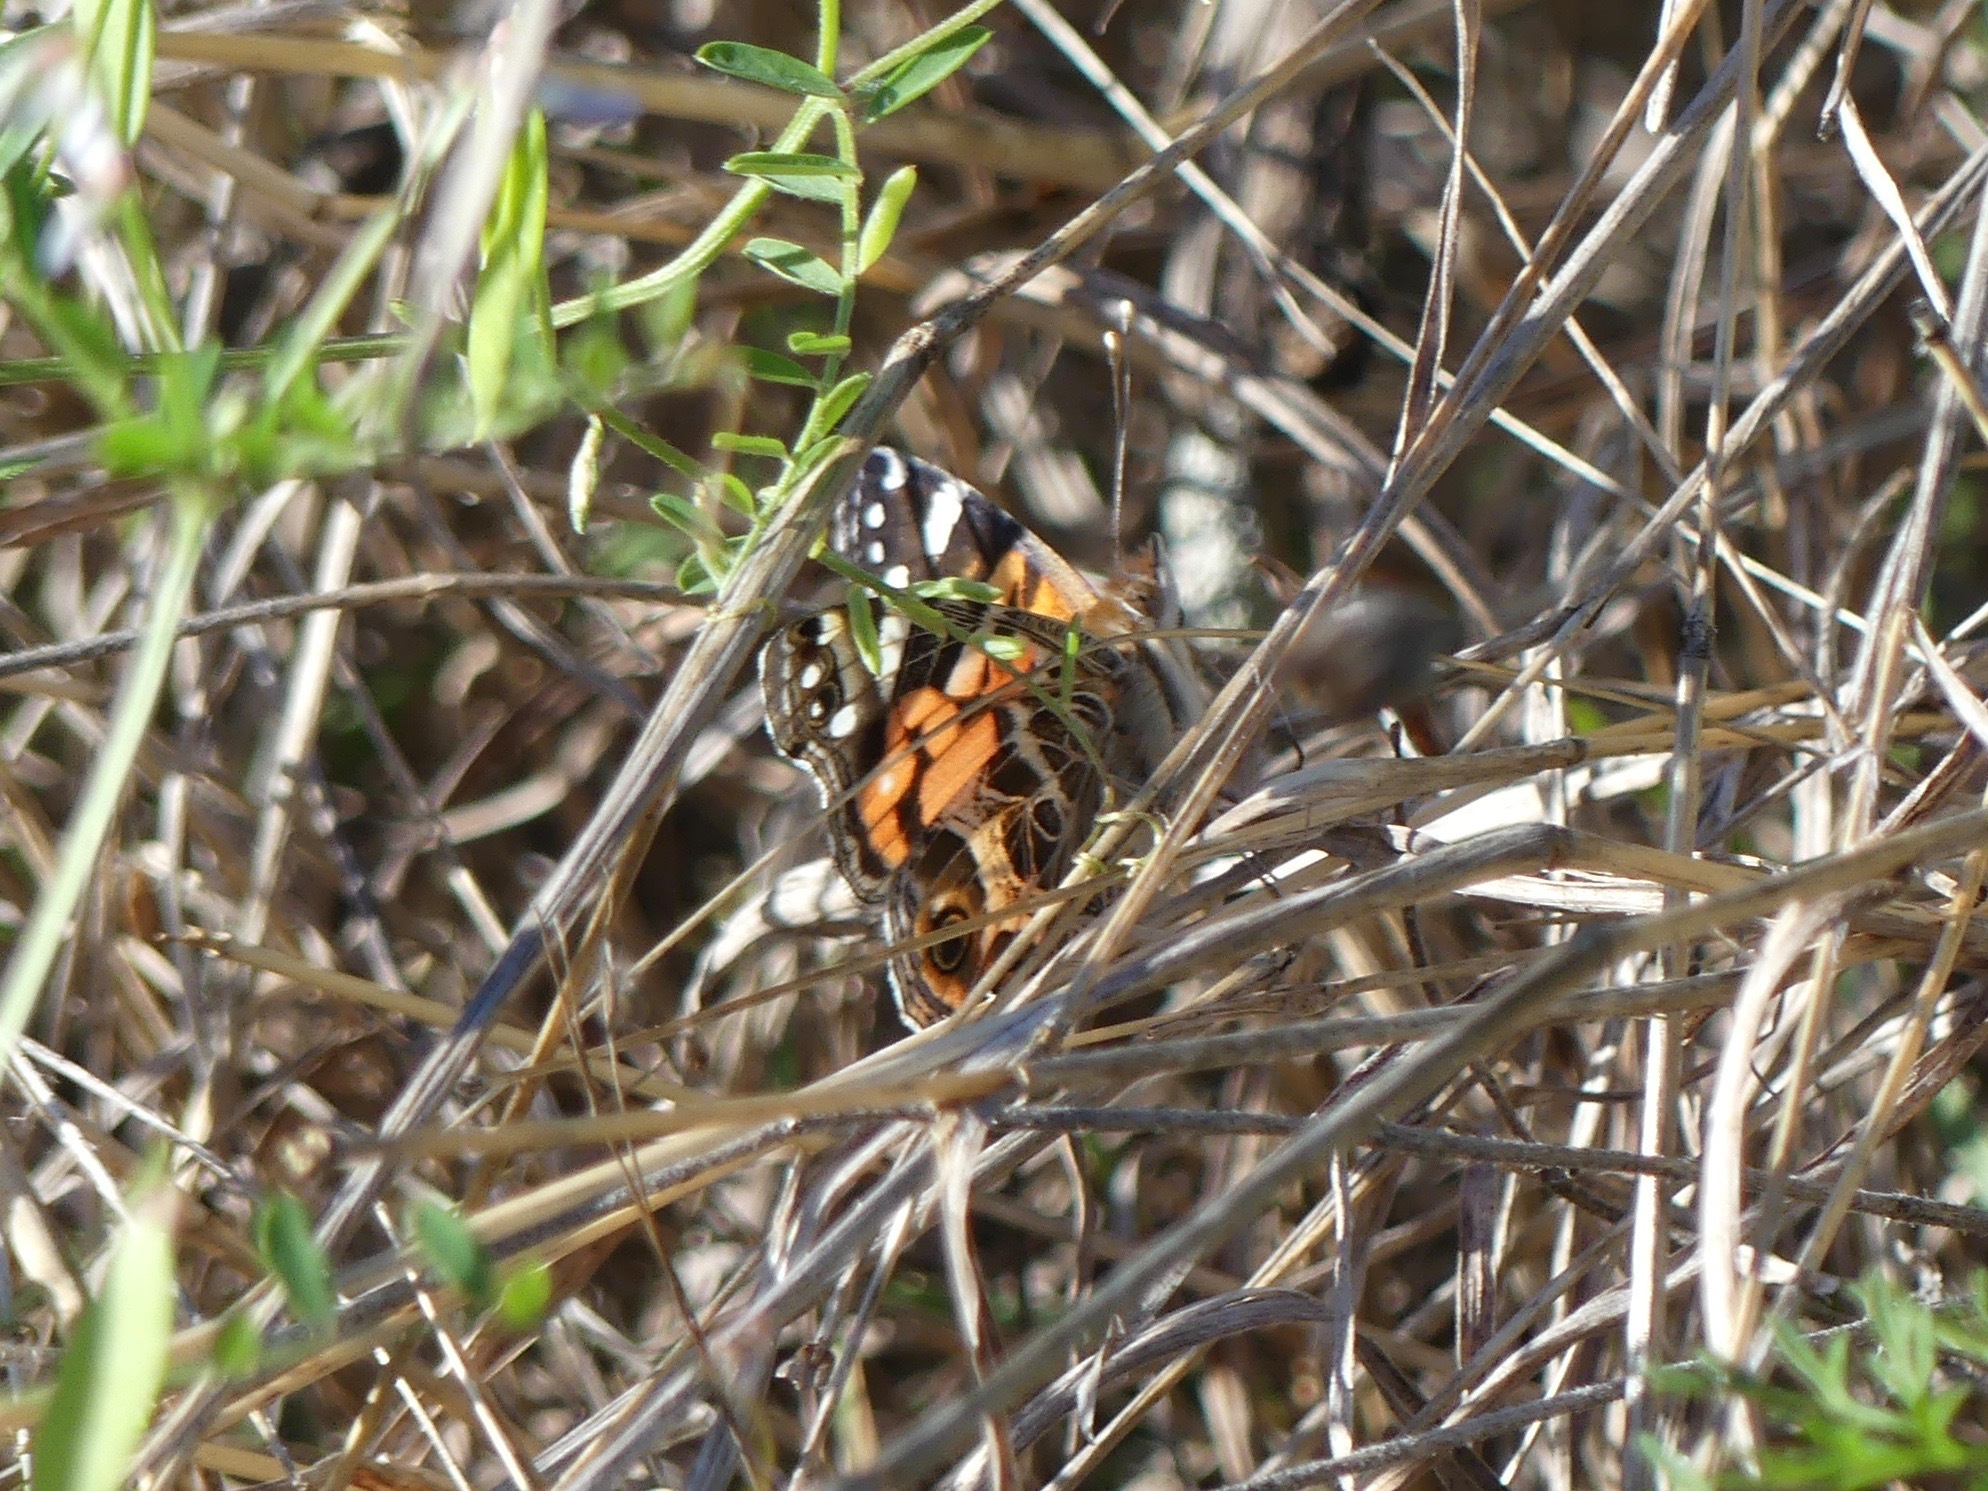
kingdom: Animalia
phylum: Arthropoda
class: Insecta
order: Lepidoptera
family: Nymphalidae
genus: Vanessa
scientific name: Vanessa virginiensis
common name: American lady
